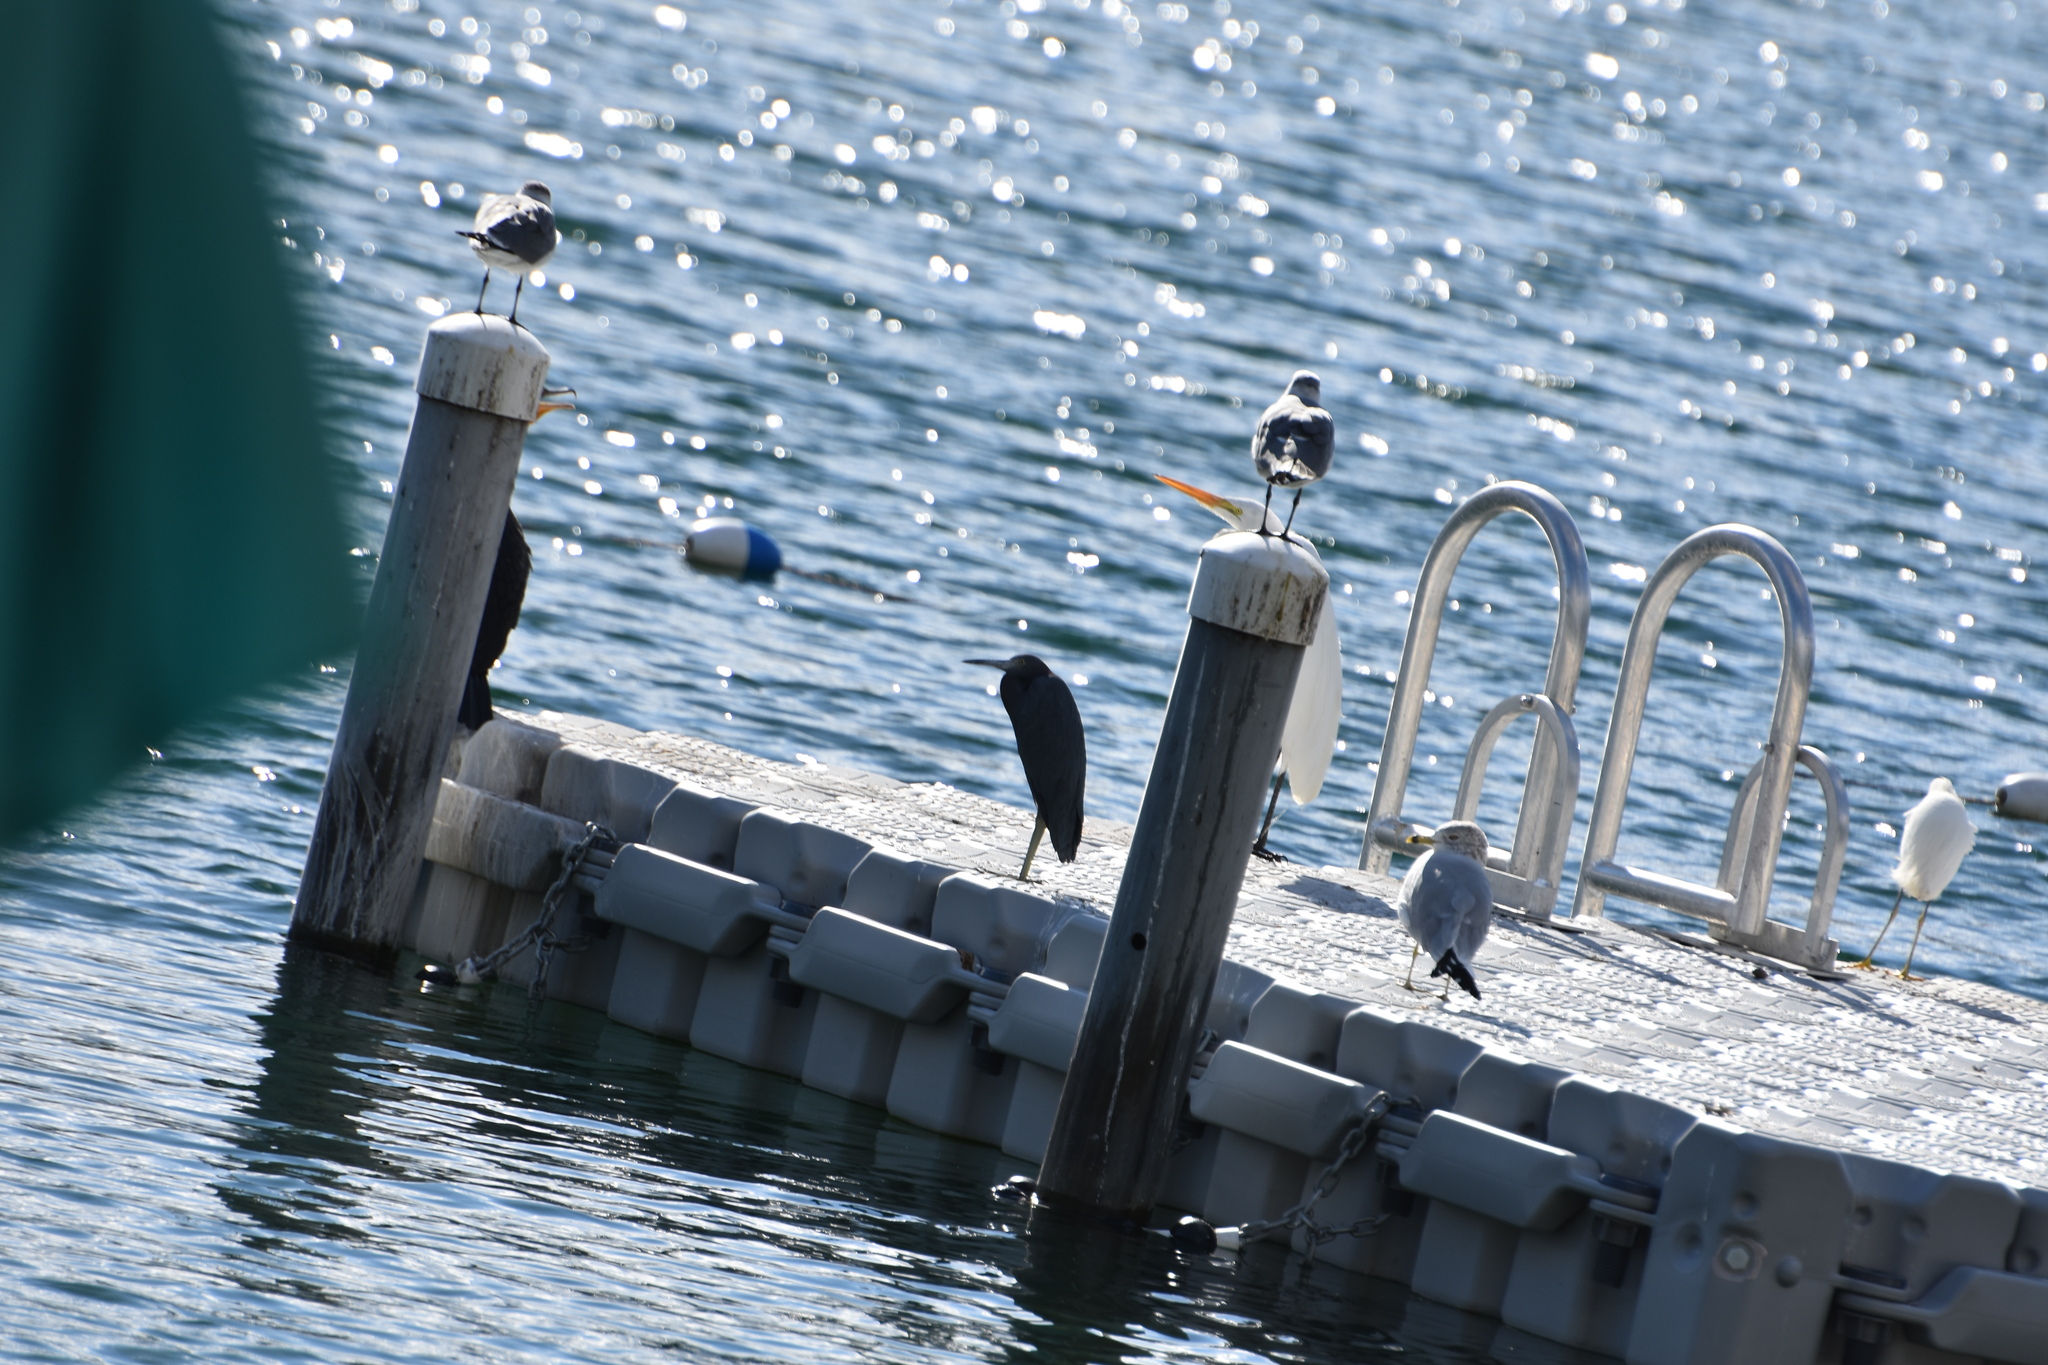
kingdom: Animalia
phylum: Chordata
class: Aves
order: Pelecaniformes
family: Ardeidae
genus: Egretta
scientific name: Egretta caerulea
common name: Little blue heron
